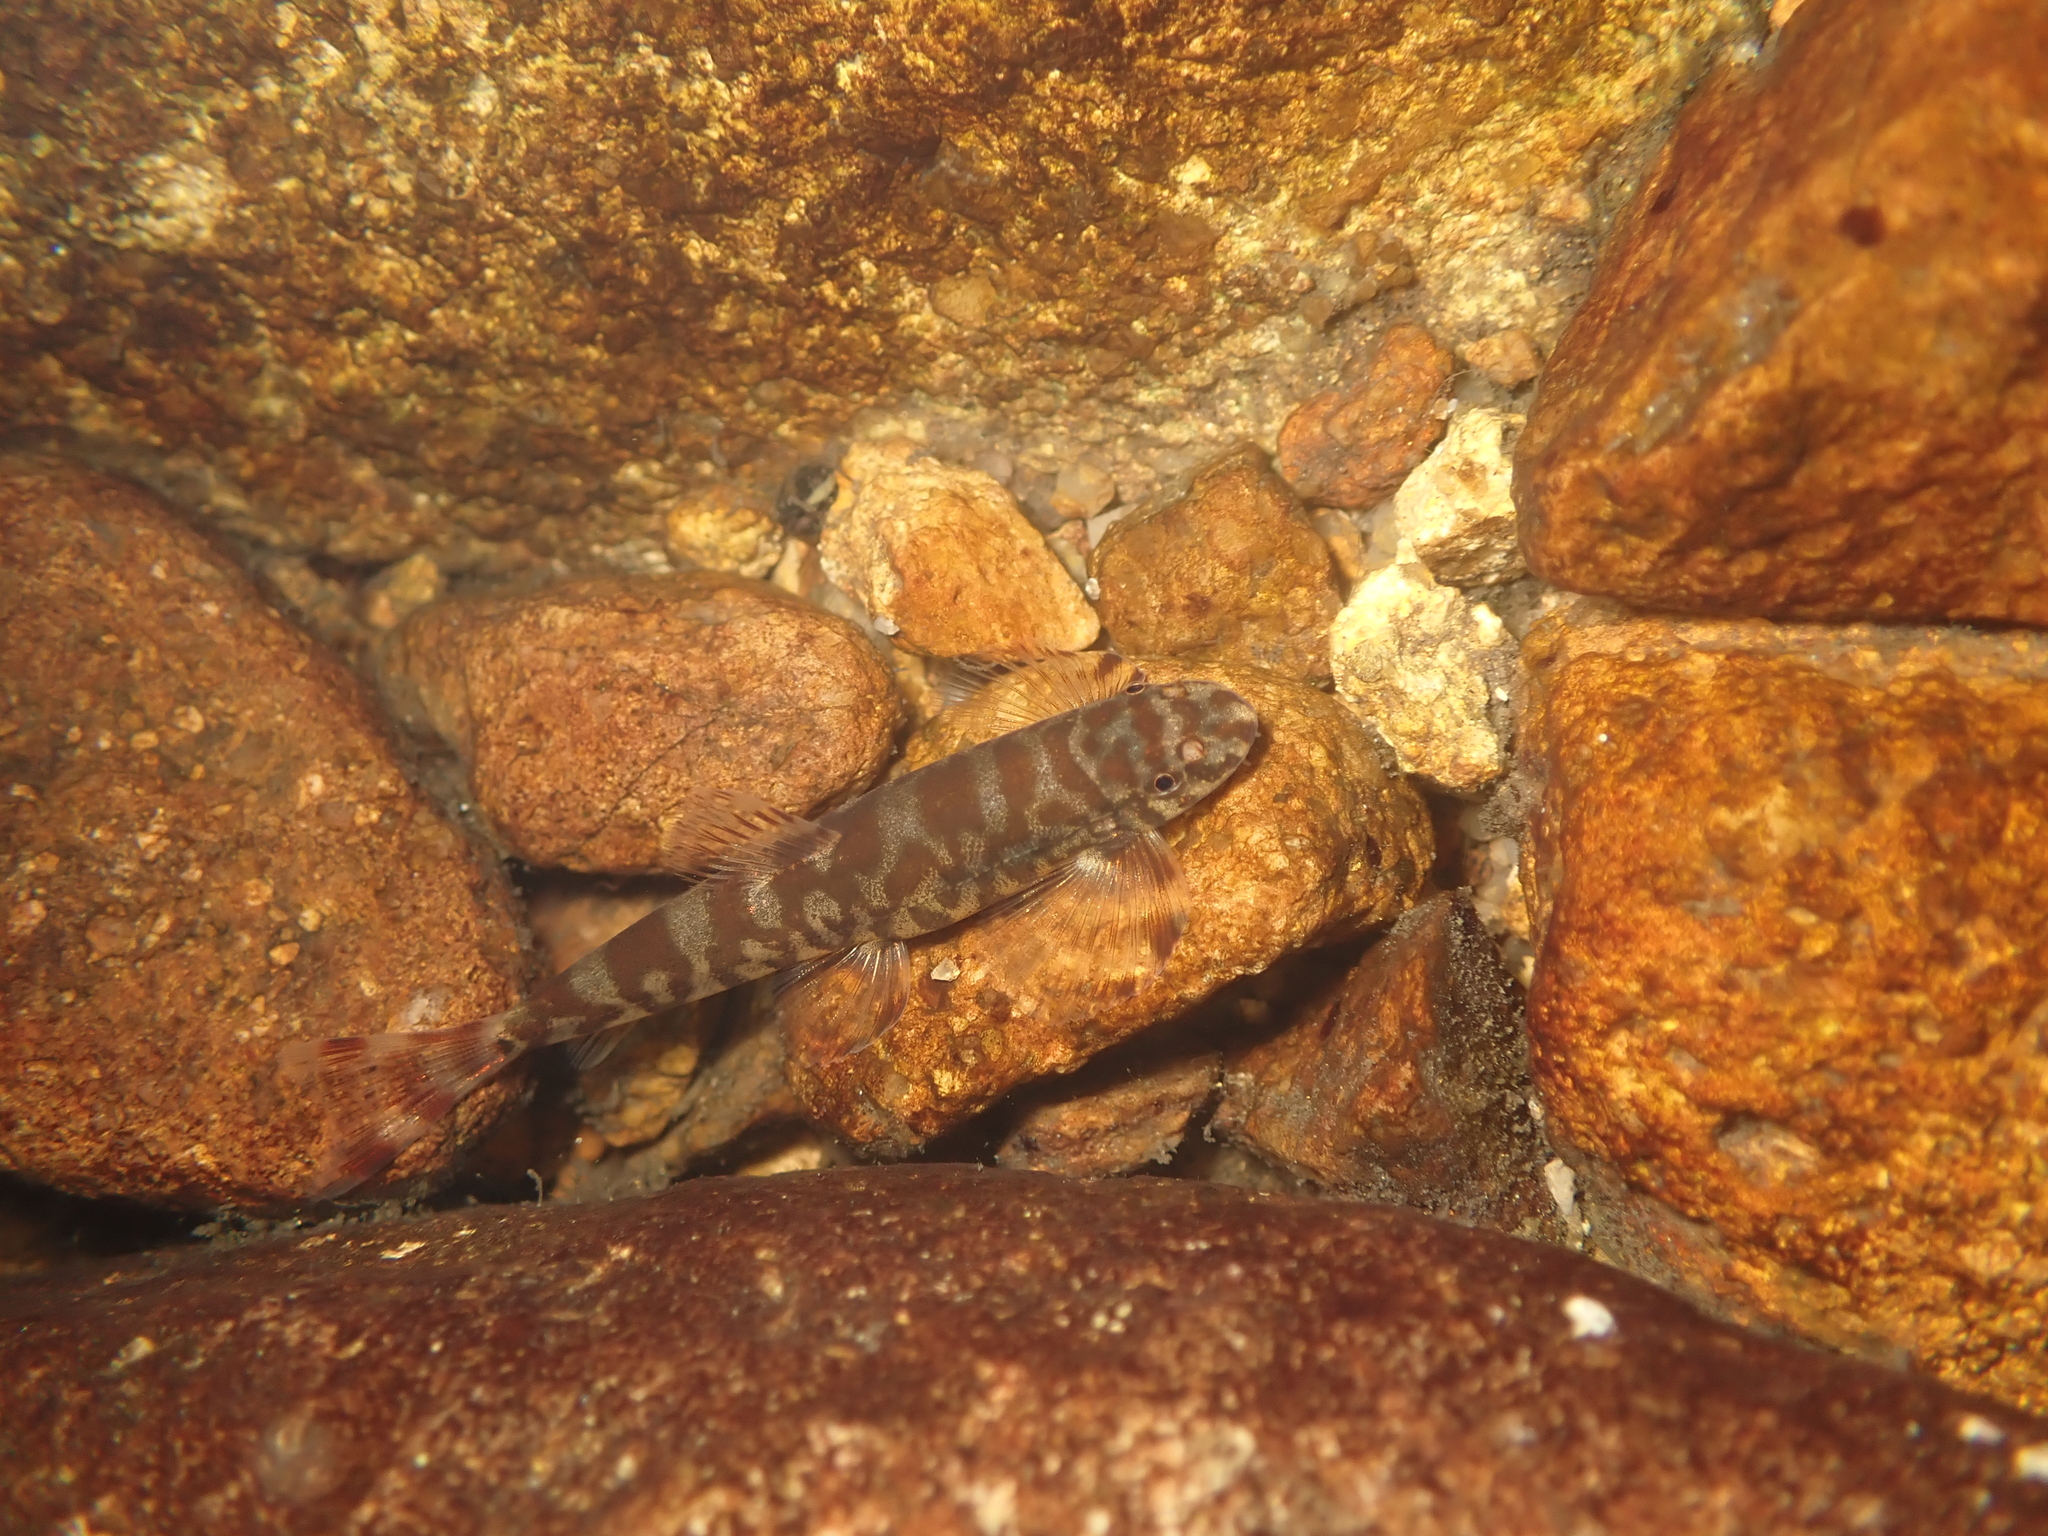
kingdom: Animalia
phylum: Chordata
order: Cypriniformes
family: Balitoridae
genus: Liniparhomaloptera
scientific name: Liniparhomaloptera disparis
